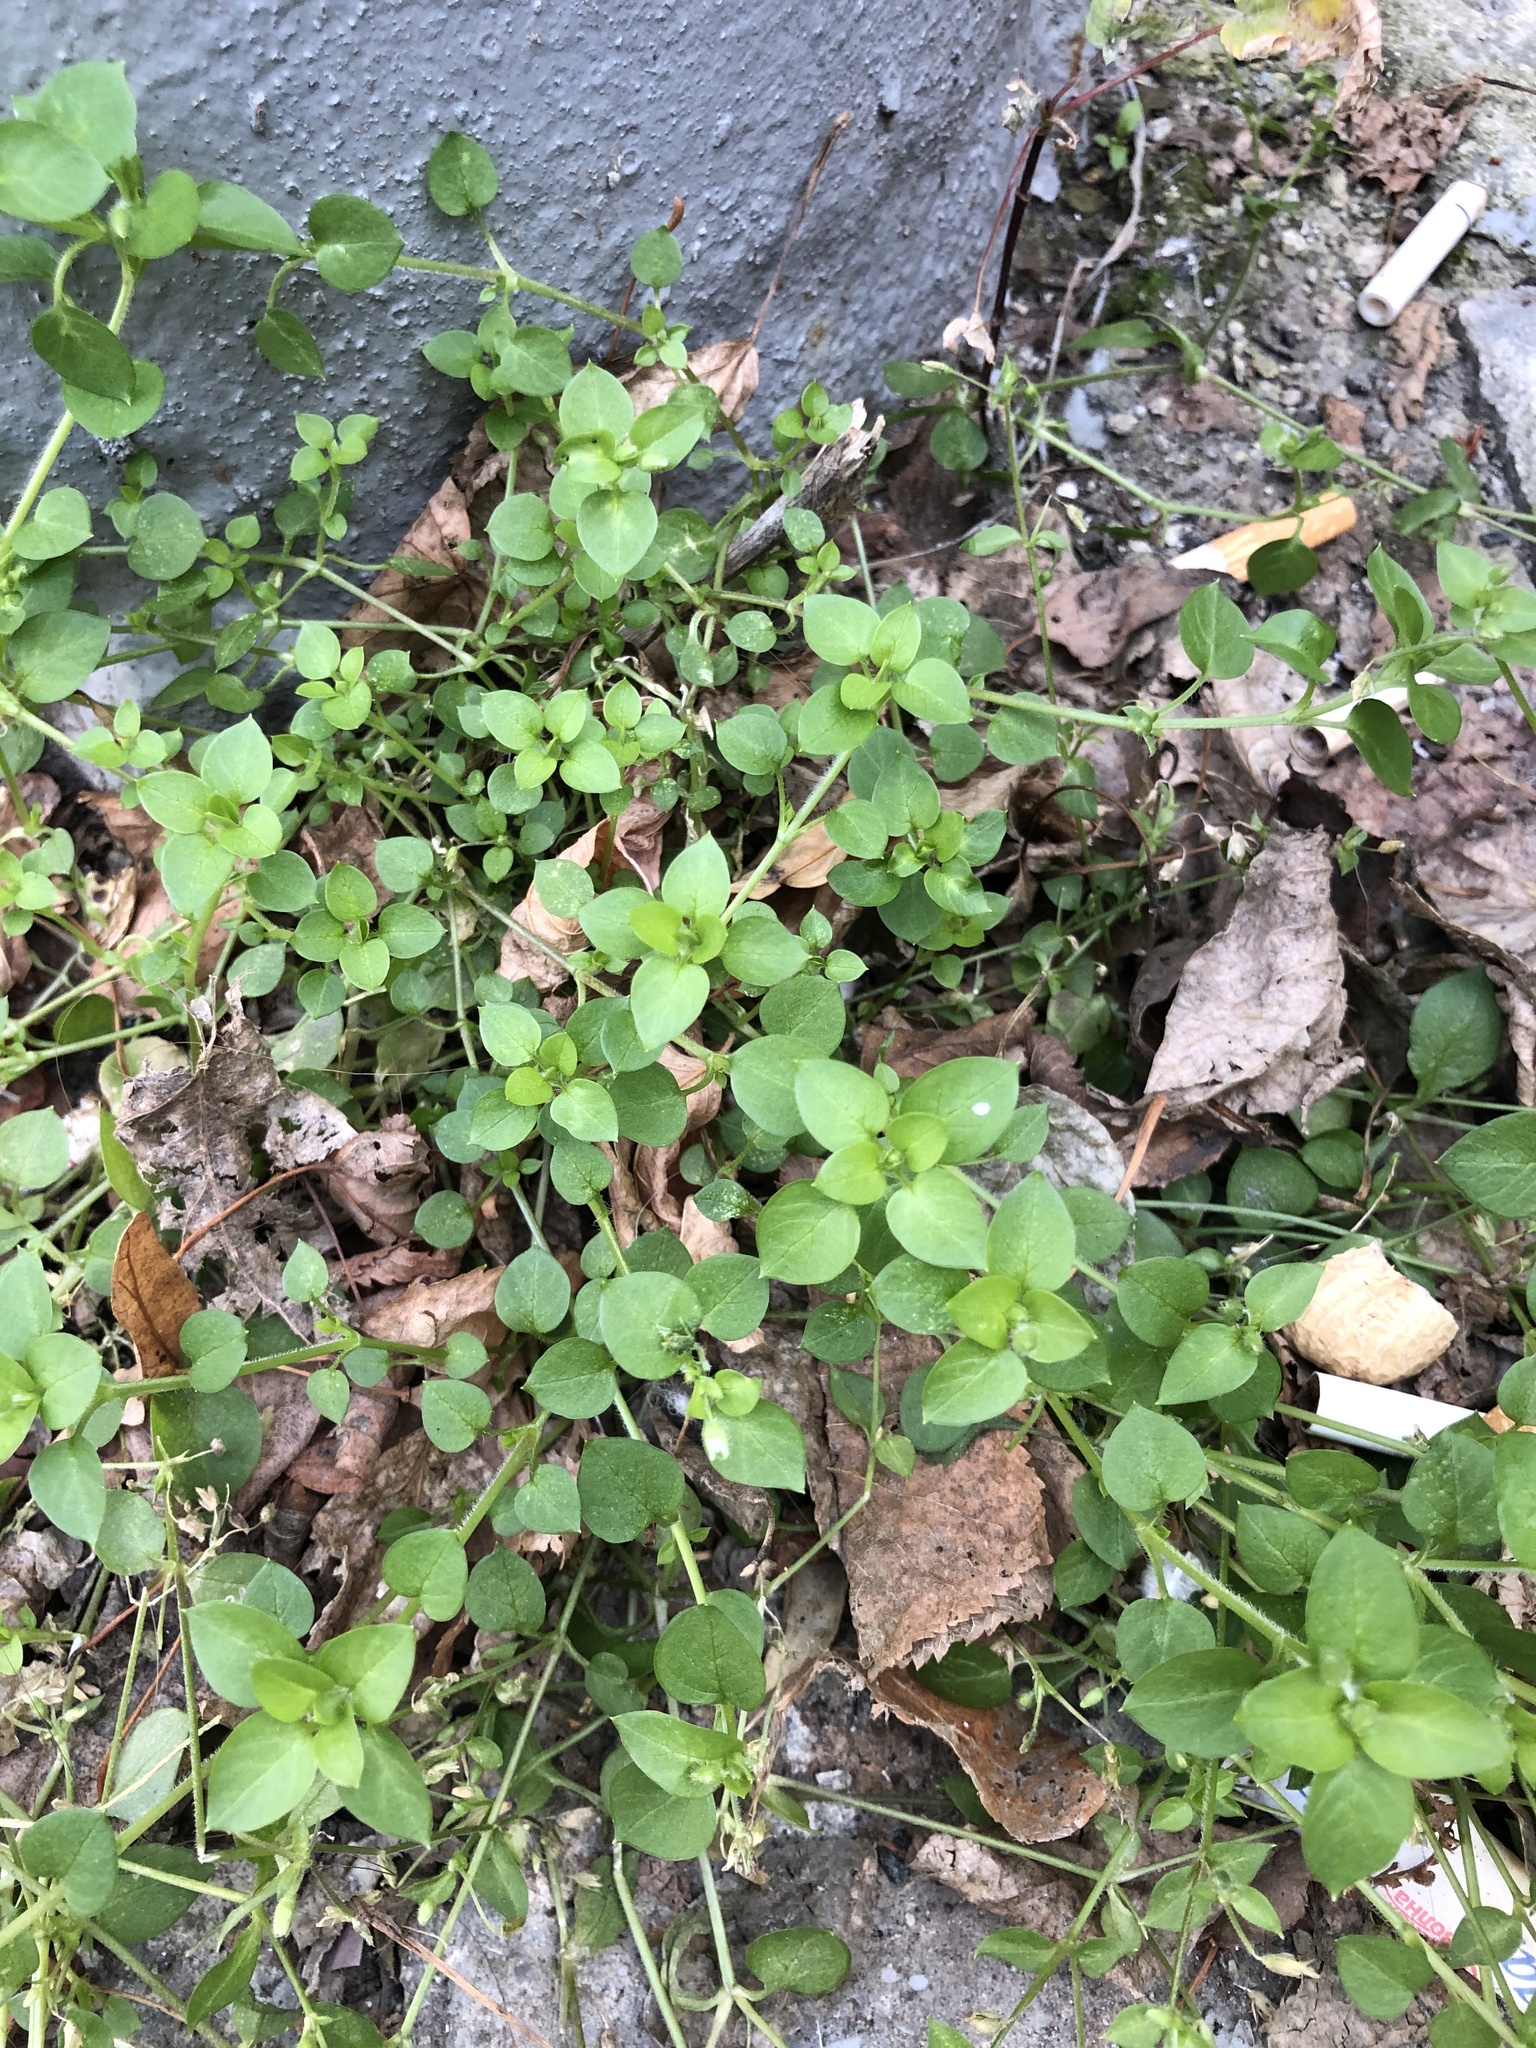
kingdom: Plantae
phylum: Tracheophyta
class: Magnoliopsida
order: Caryophyllales
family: Caryophyllaceae
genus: Stellaria
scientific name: Stellaria media
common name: Common chickweed
